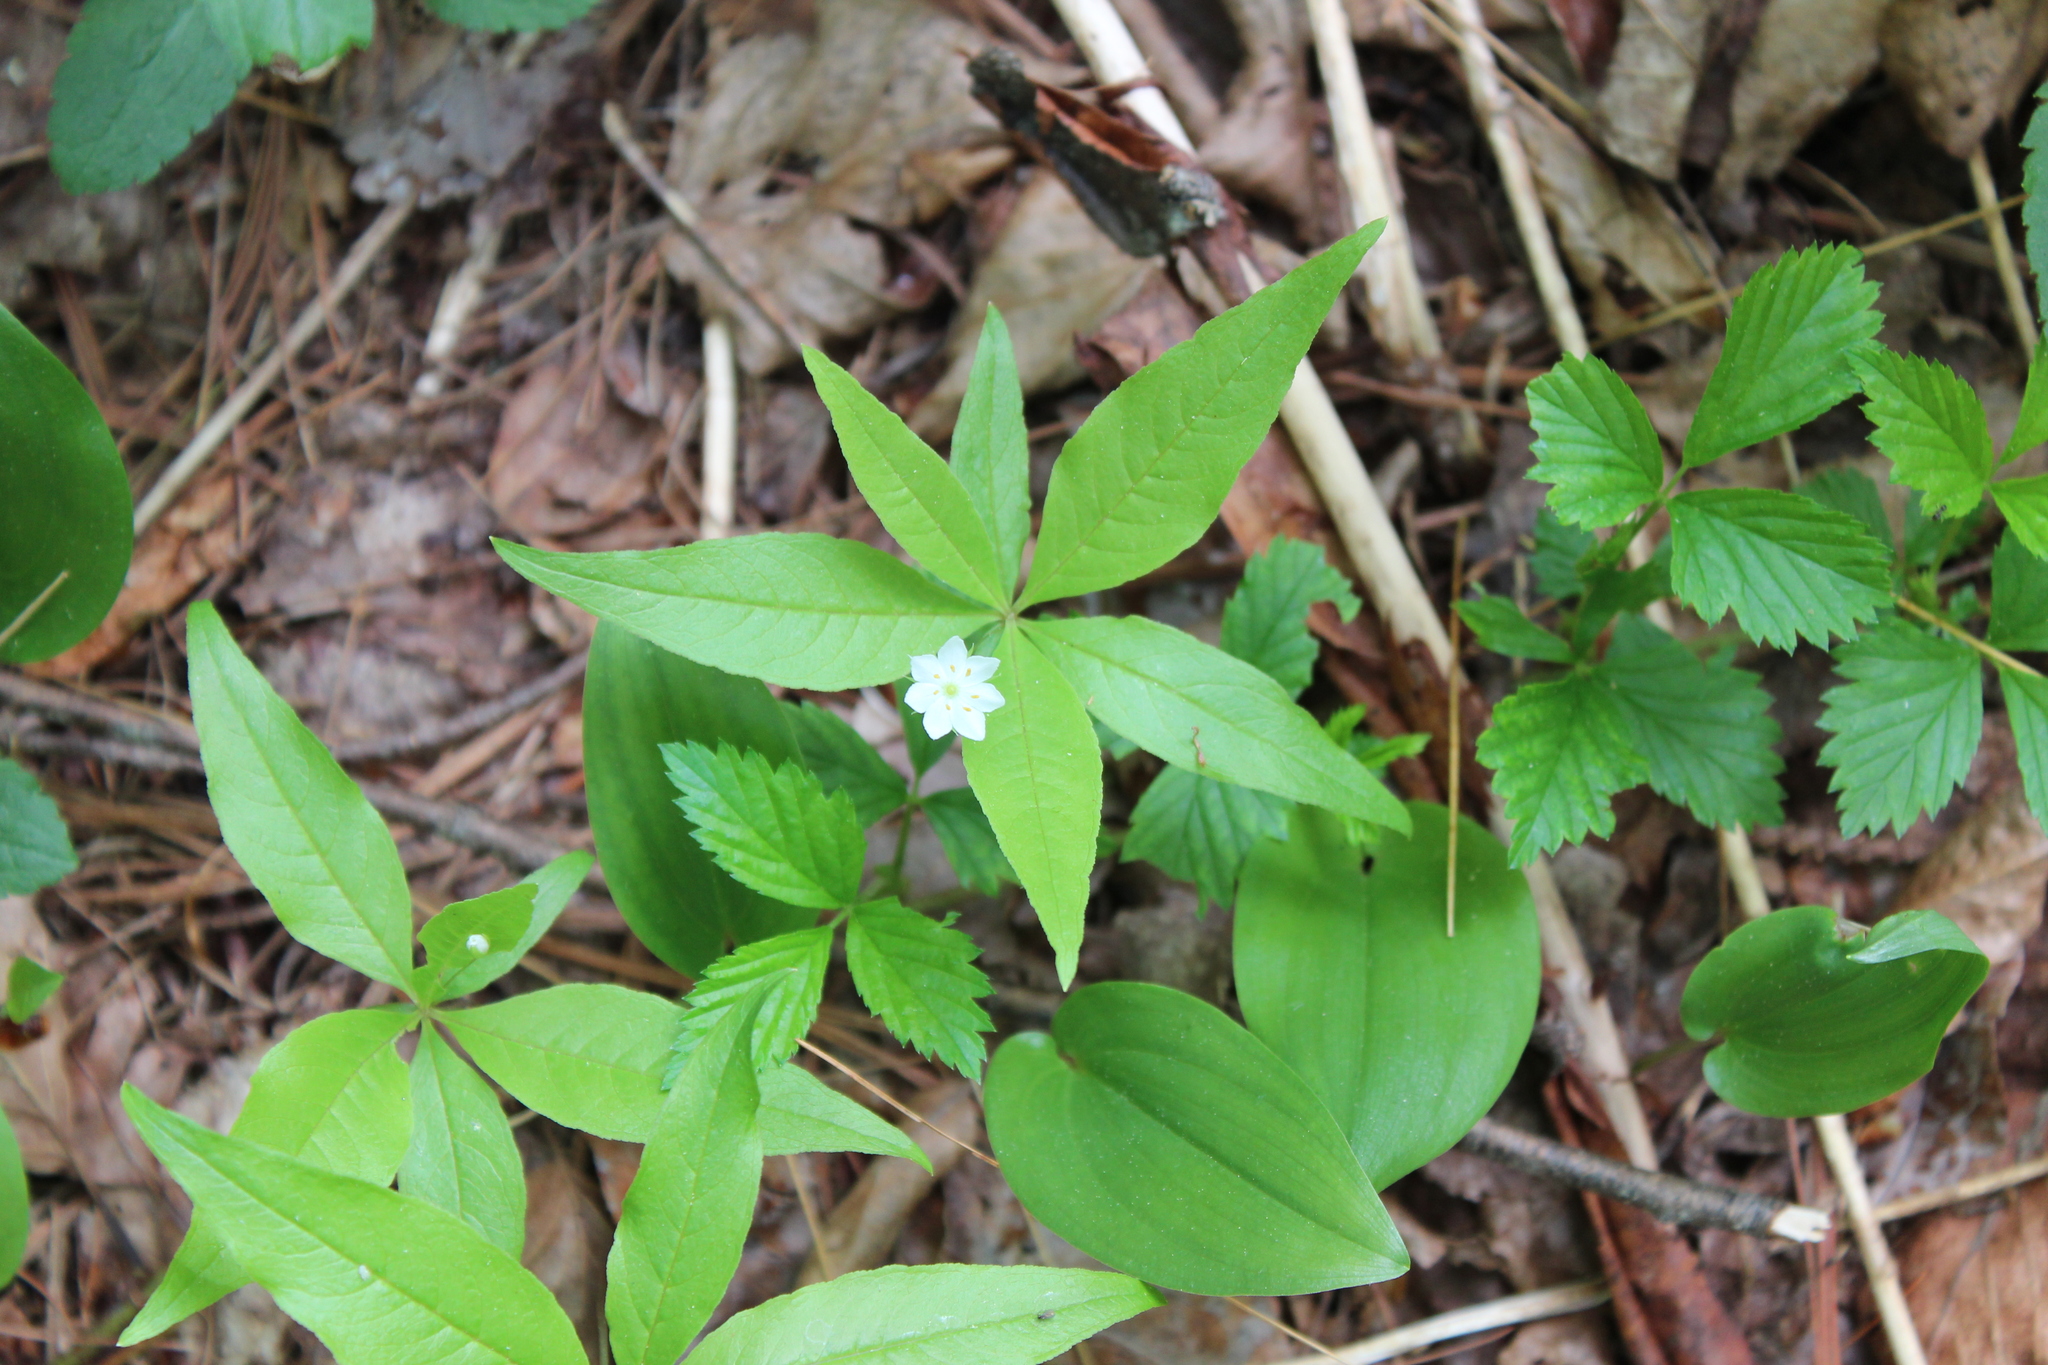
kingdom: Plantae
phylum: Tracheophyta
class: Magnoliopsida
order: Ericales
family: Primulaceae
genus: Lysimachia
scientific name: Lysimachia borealis
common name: American starflower
